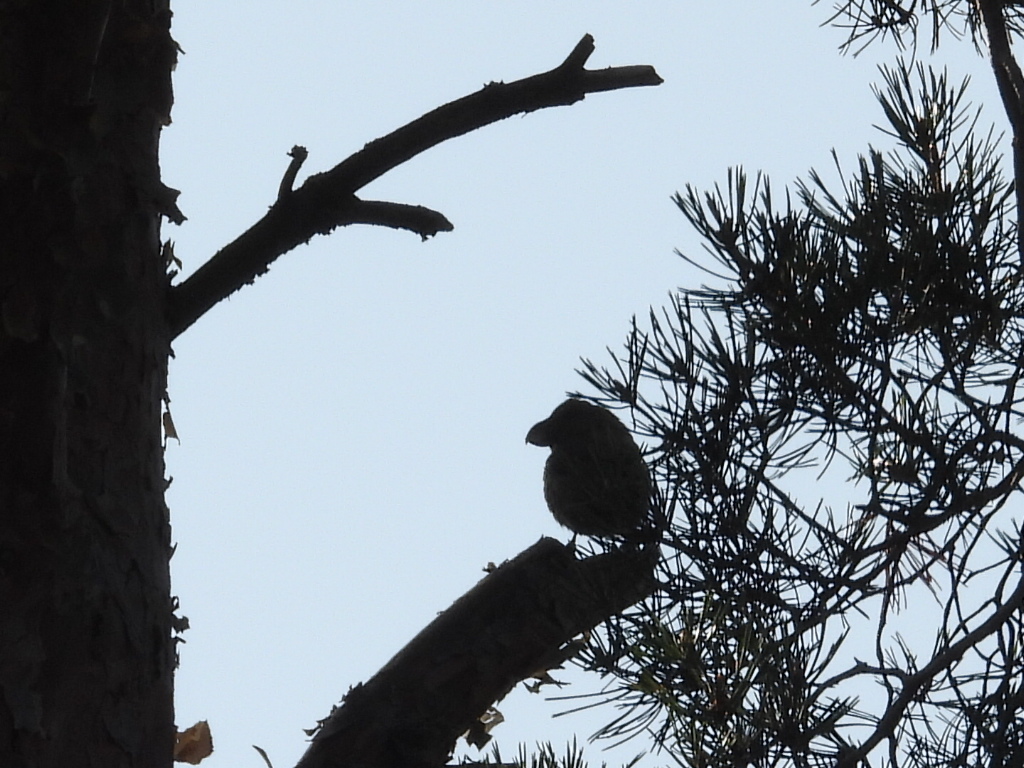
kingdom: Animalia
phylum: Chordata
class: Aves
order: Passeriformes
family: Fringillidae
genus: Loxia
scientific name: Loxia pytyopsittacus
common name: Parrot crossbill
